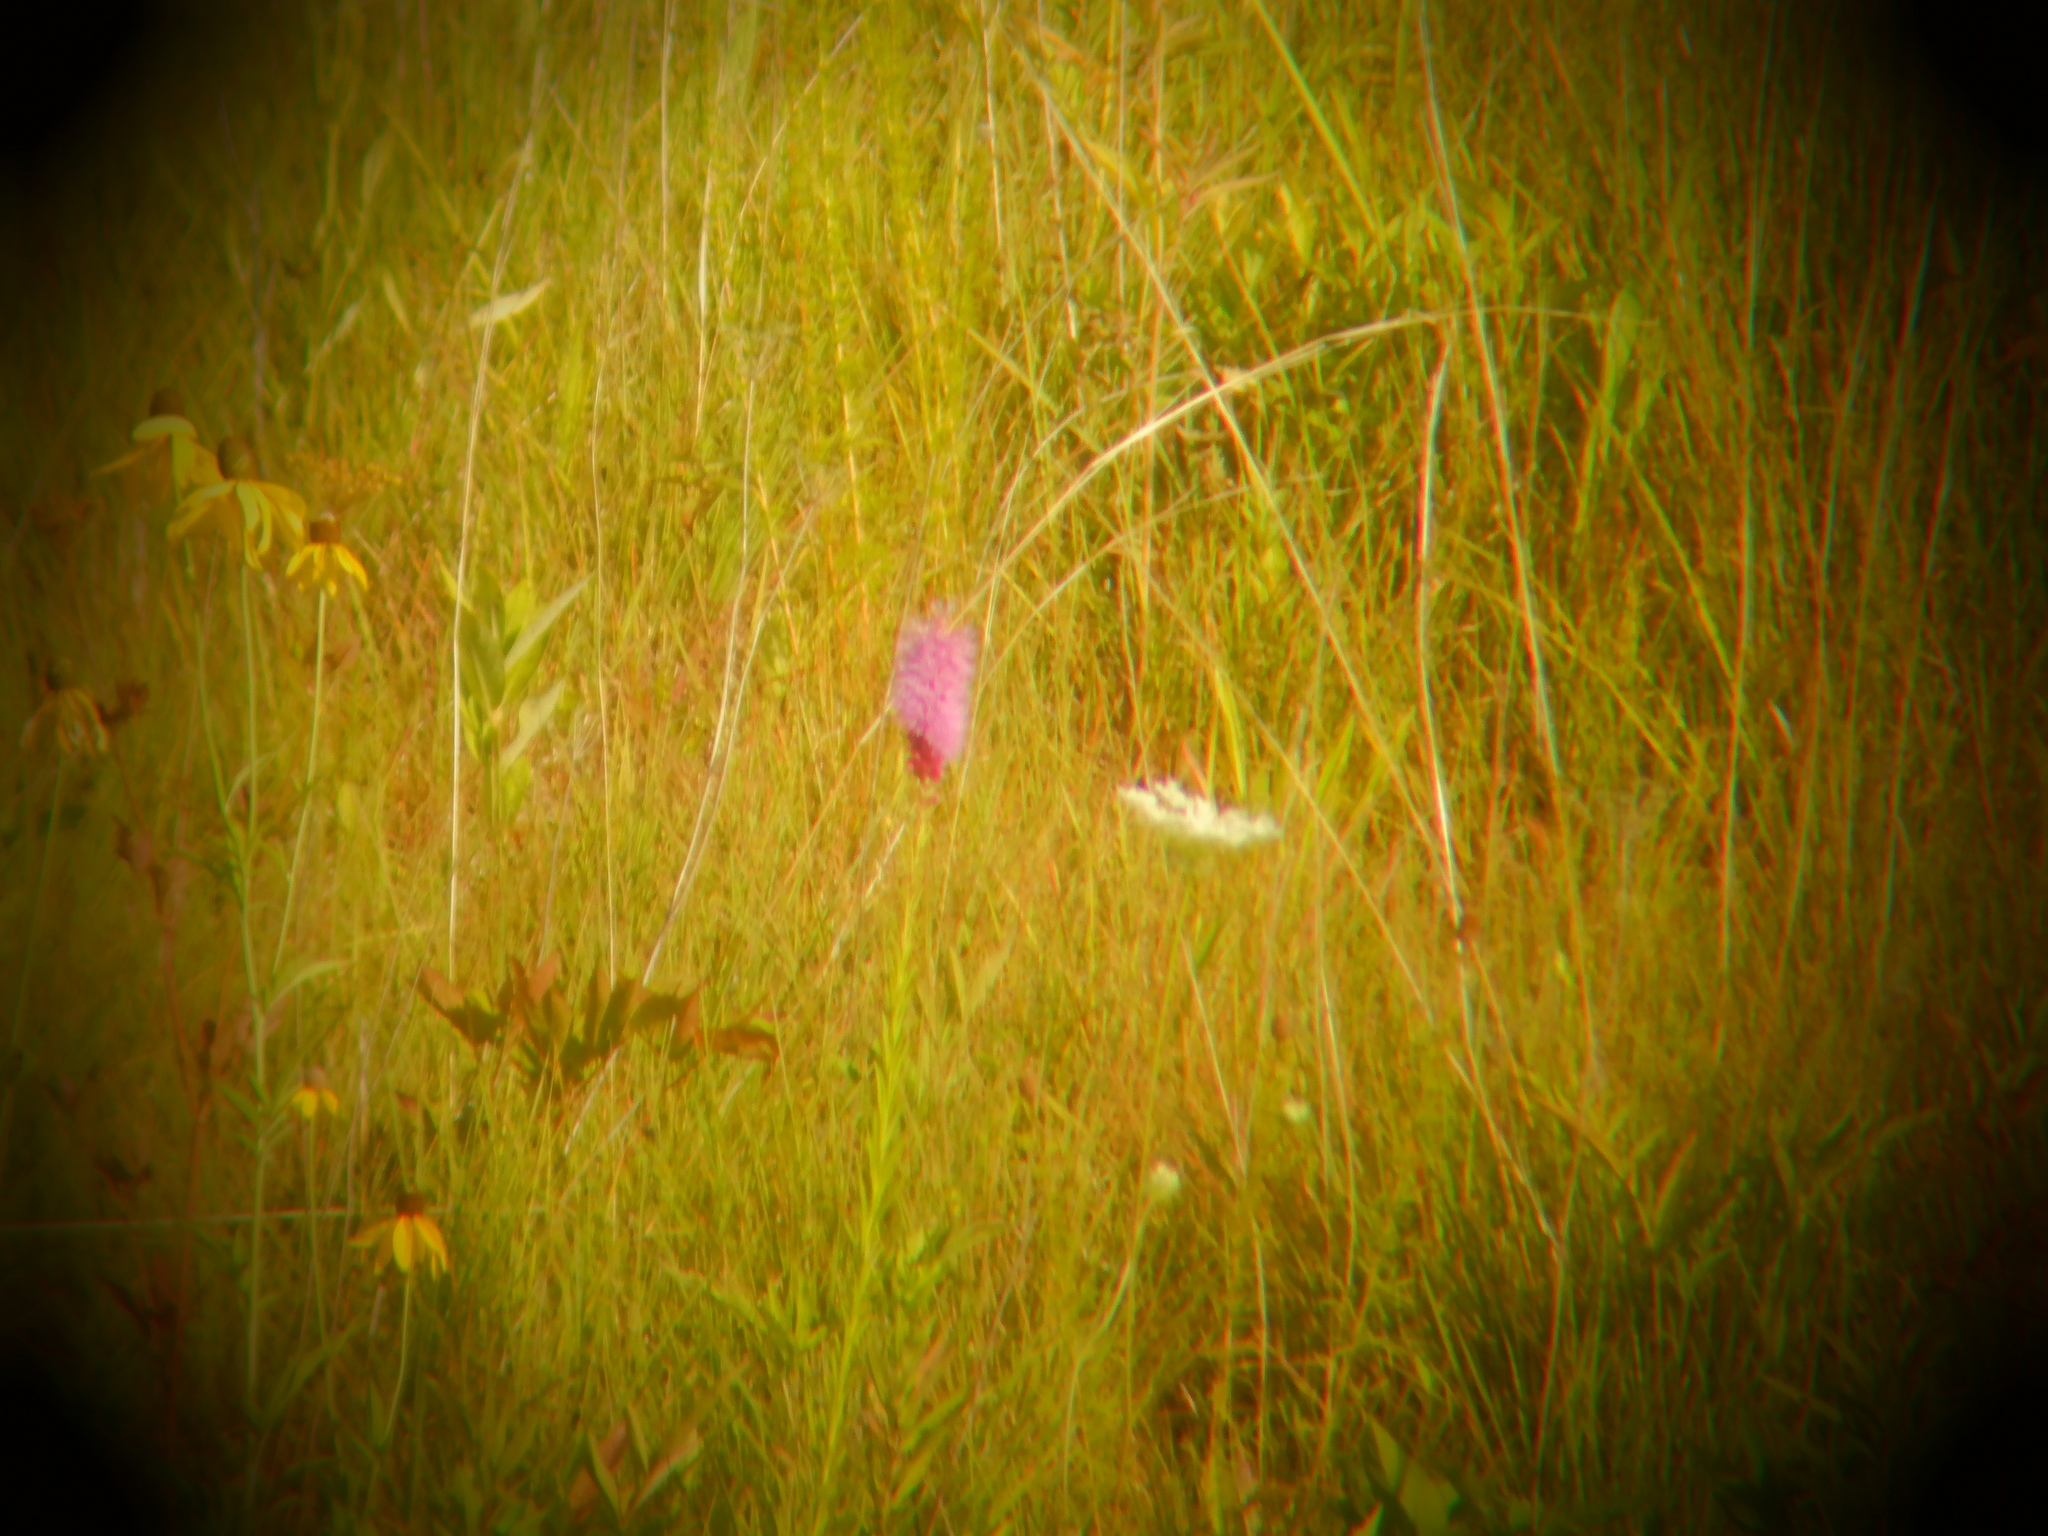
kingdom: Plantae
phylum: Tracheophyta
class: Magnoliopsida
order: Apiales
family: Apiaceae
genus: Daucus
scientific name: Daucus carota
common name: Wild carrot
